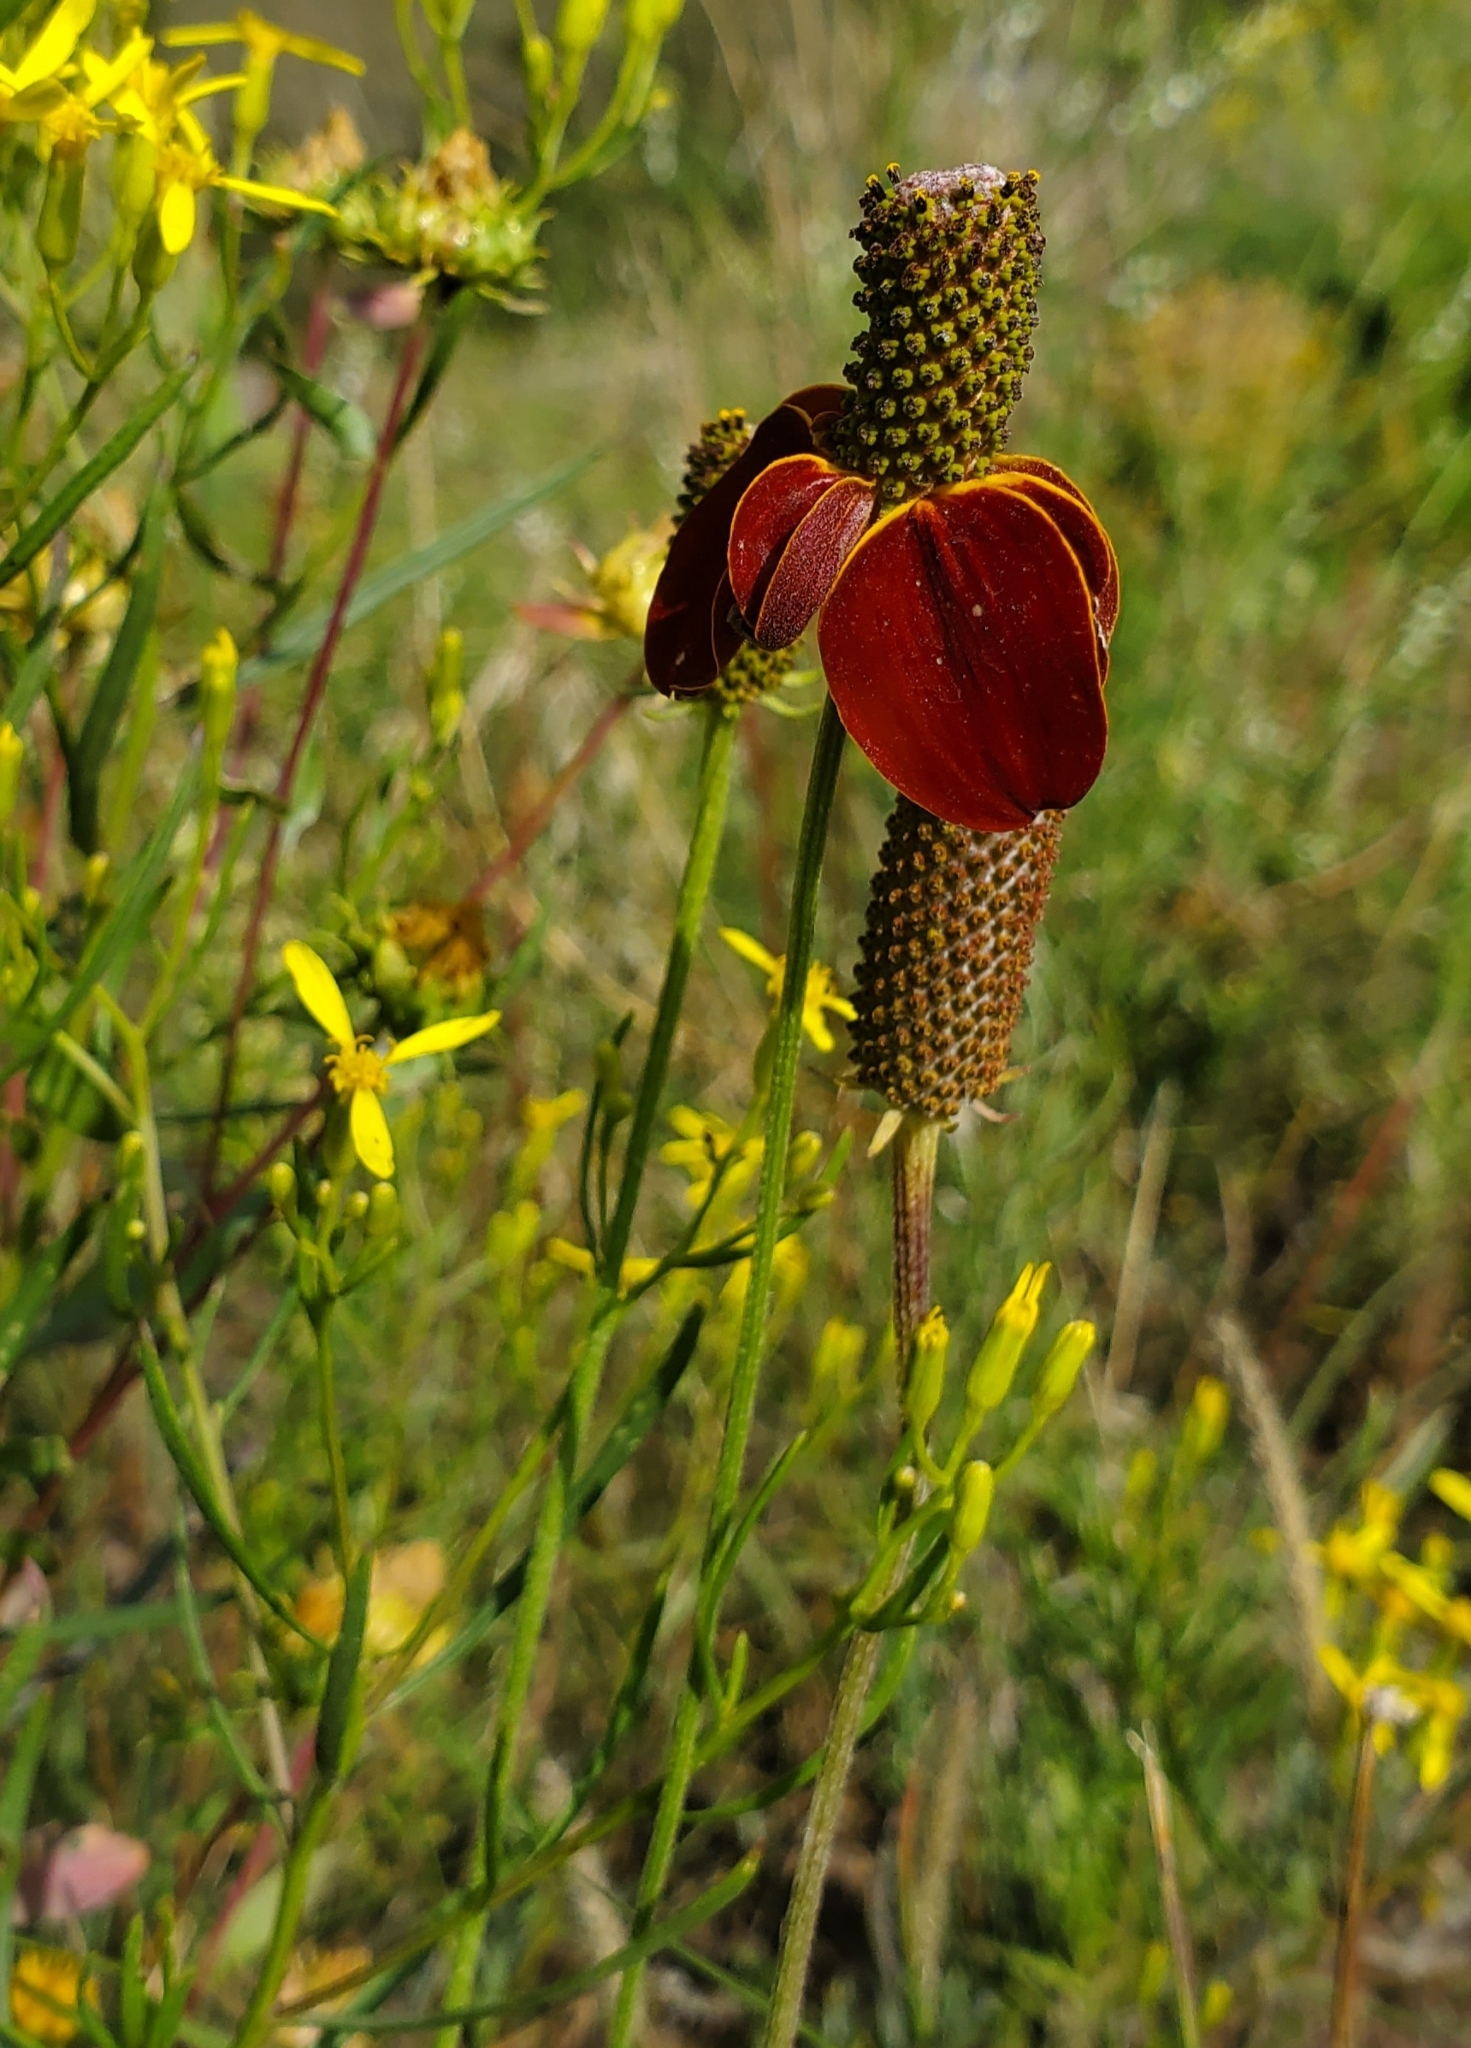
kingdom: Plantae
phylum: Tracheophyta
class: Magnoliopsida
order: Asterales
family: Asteraceae
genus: Ratibida
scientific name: Ratibida columnifera
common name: Prairie coneflower
